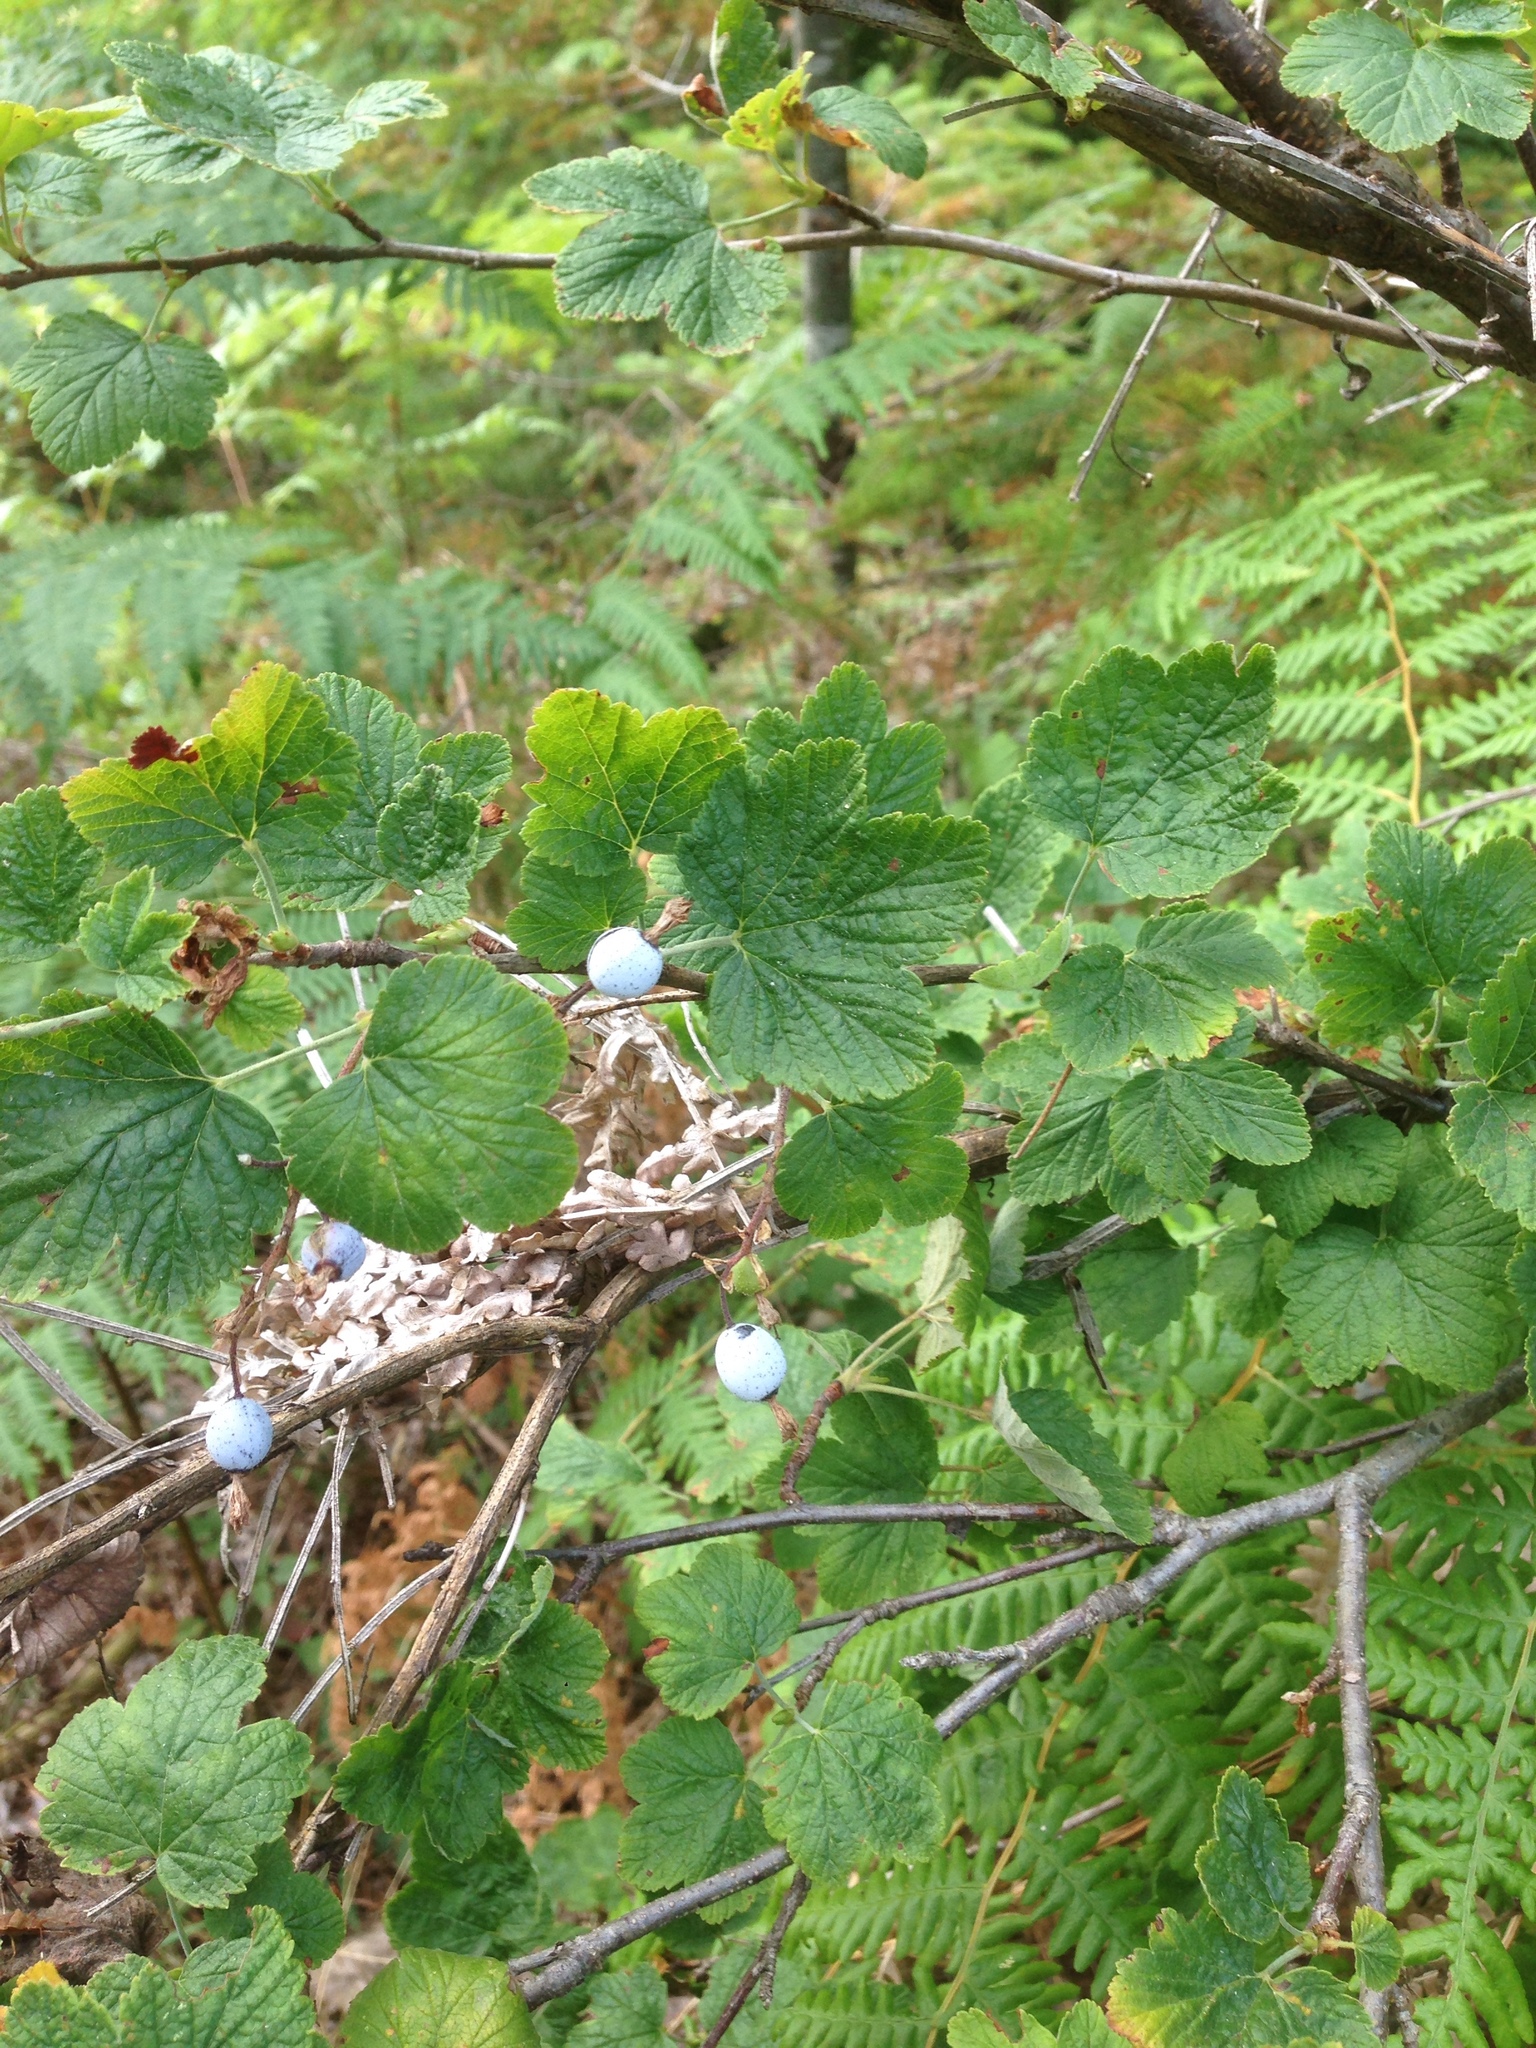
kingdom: Plantae
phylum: Tracheophyta
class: Magnoliopsida
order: Saxifragales
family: Grossulariaceae
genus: Ribes
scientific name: Ribes sanguineum
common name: Flowering currant
